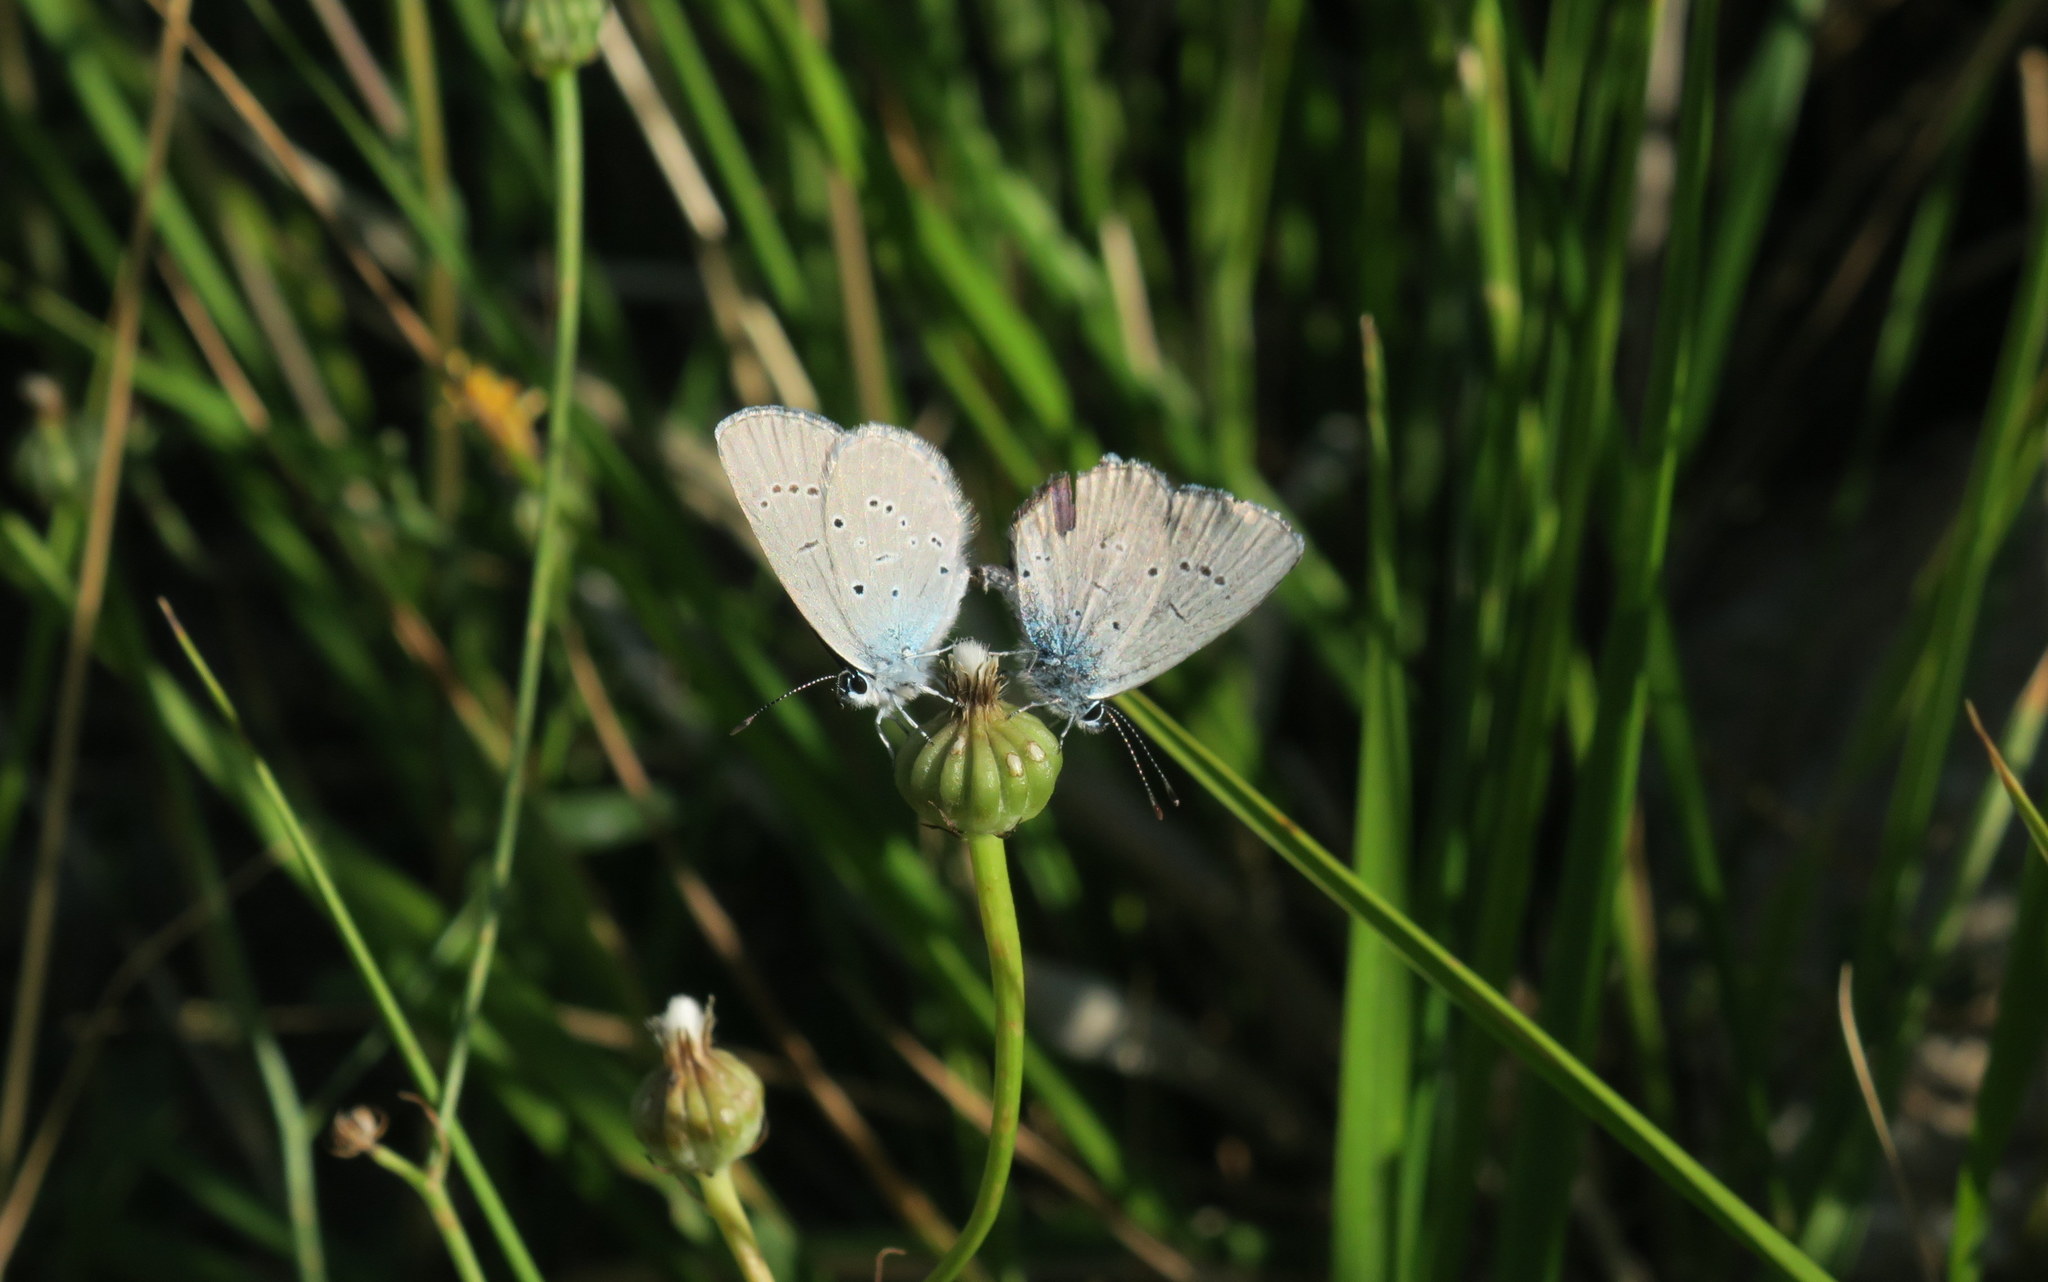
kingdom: Animalia
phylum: Arthropoda
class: Insecta
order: Lepidoptera
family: Lycaenidae
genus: Everes
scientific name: Everes sebrus
